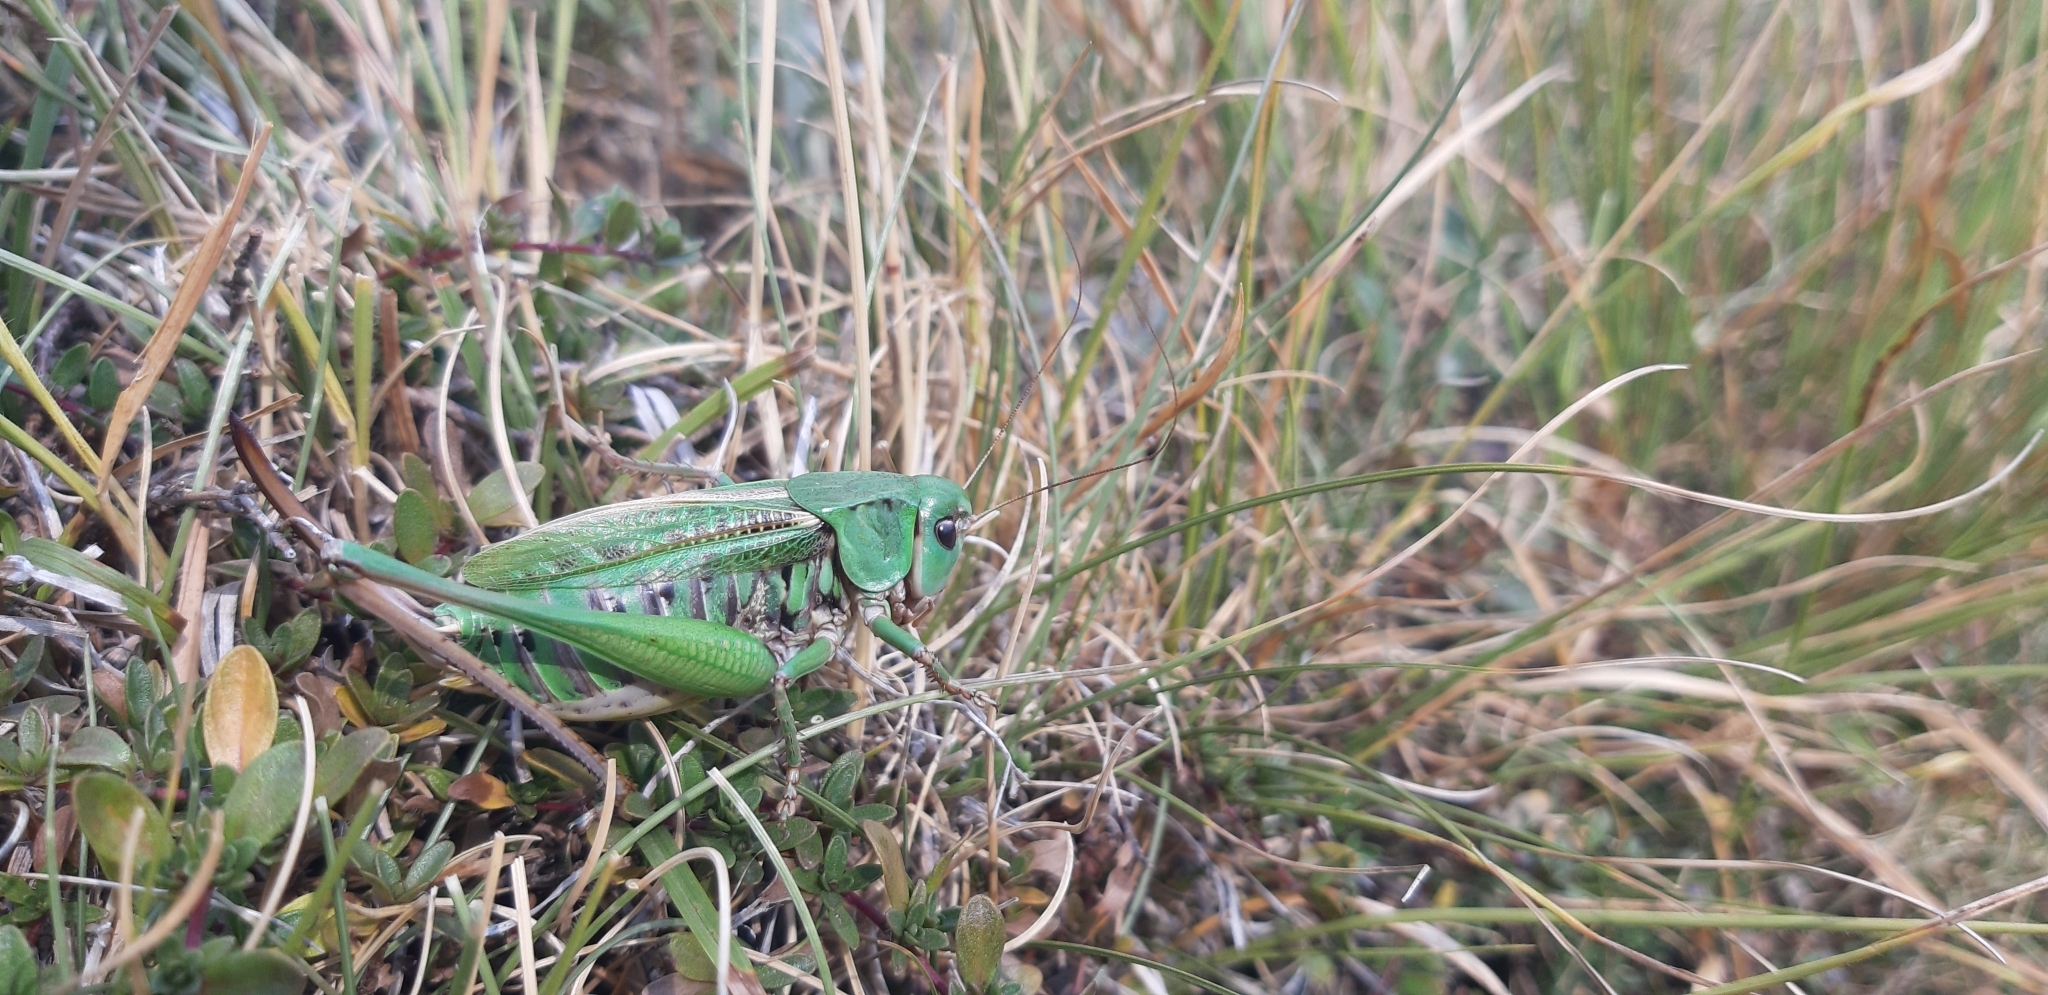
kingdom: Animalia
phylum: Arthropoda
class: Insecta
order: Orthoptera
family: Tettigoniidae
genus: Decticus
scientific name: Decticus verrucivorus
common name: Wart-biter
